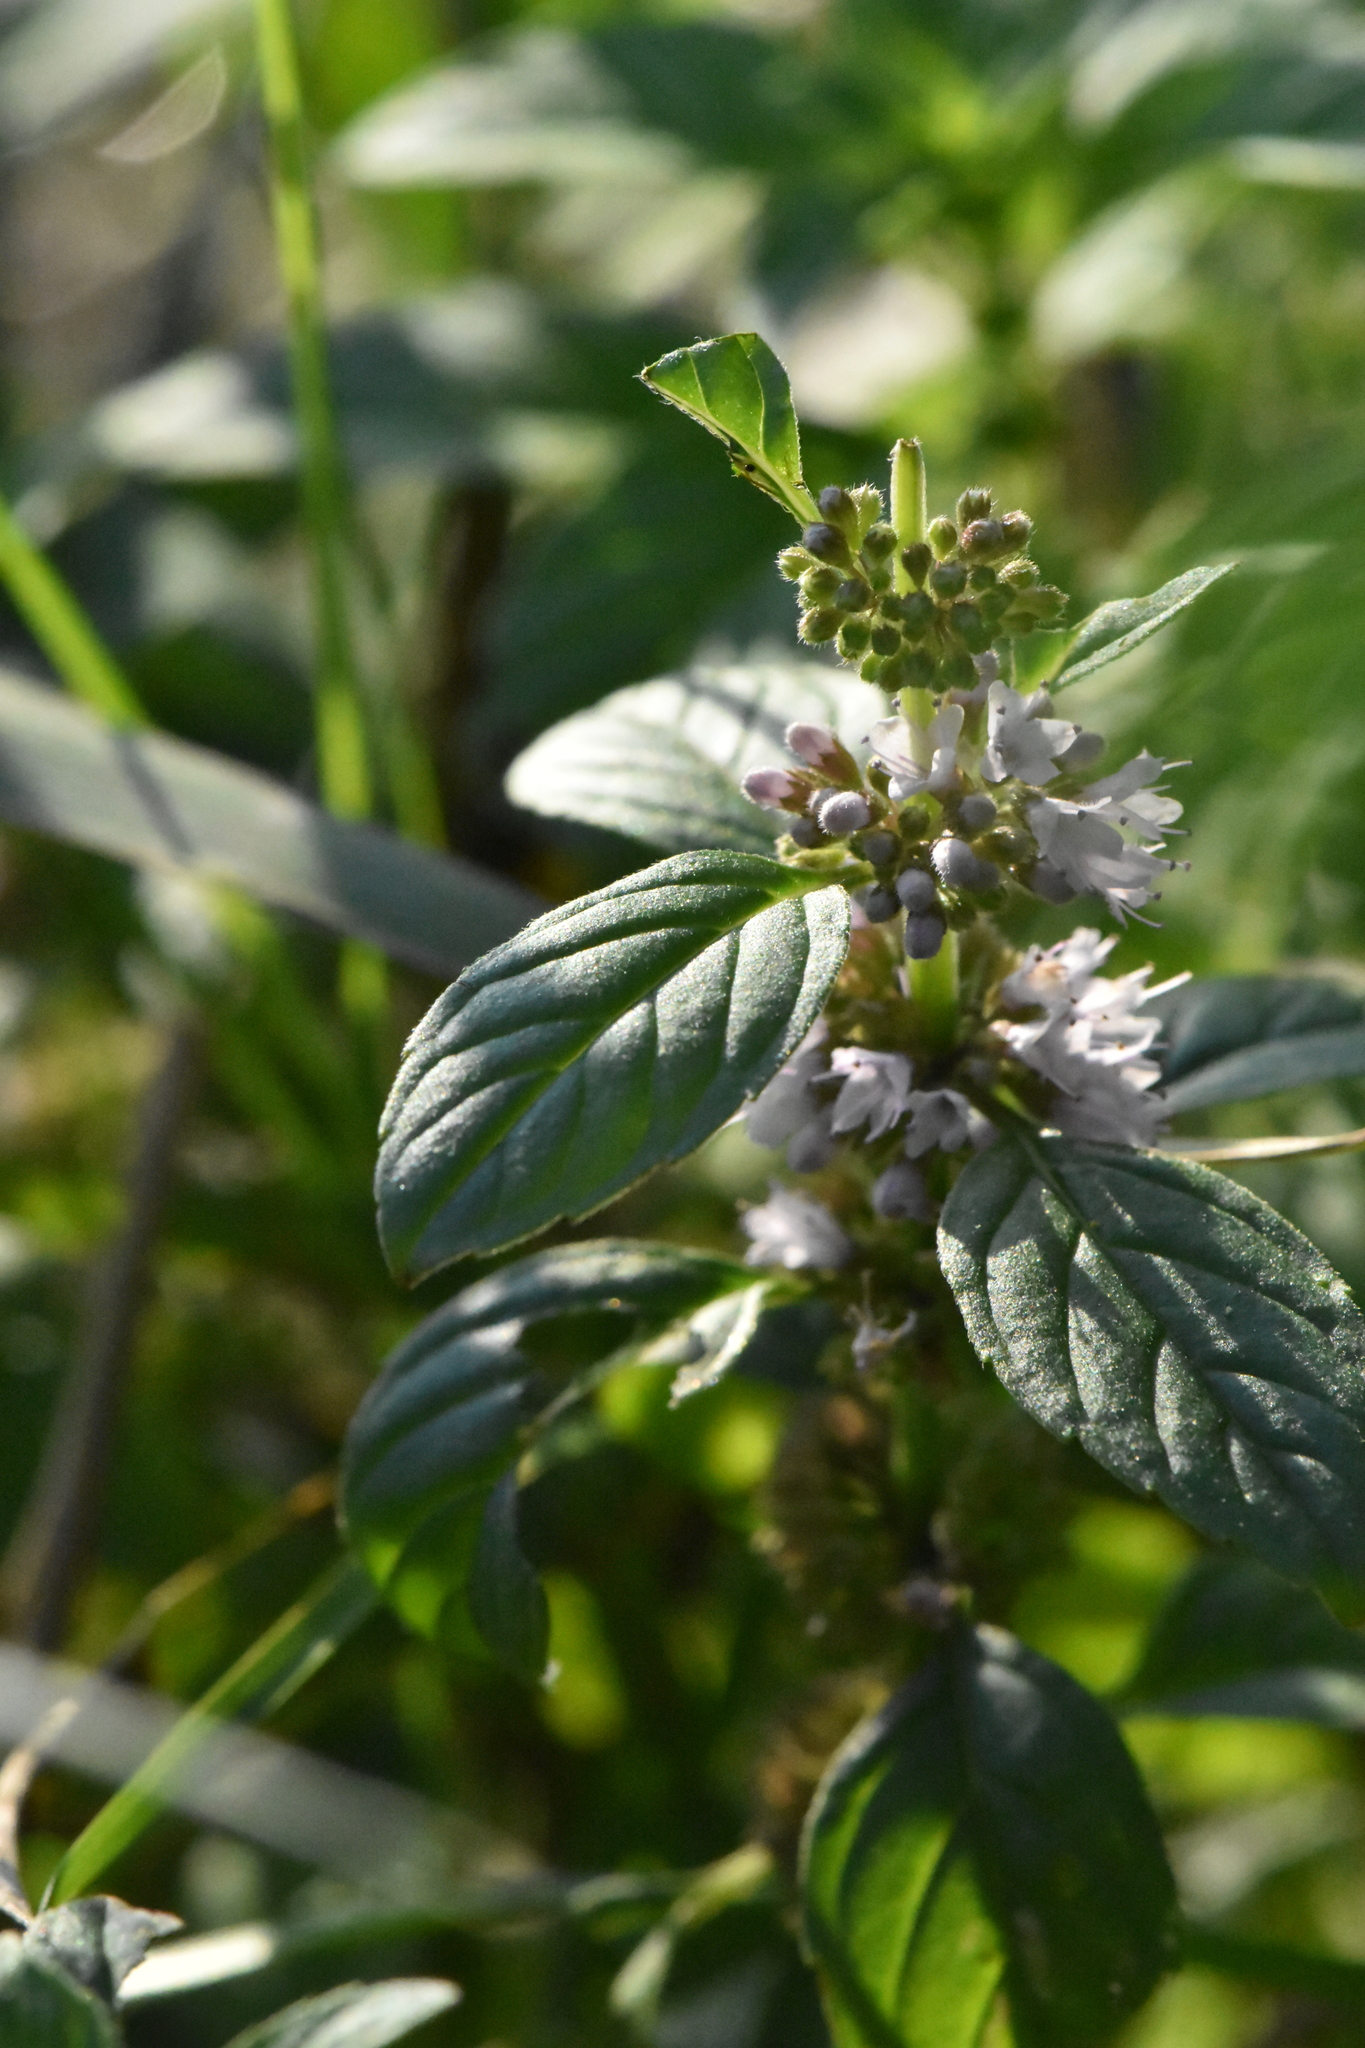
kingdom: Plantae
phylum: Tracheophyta
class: Magnoliopsida
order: Lamiales
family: Lamiaceae
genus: Mentha
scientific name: Mentha arvensis
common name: Corn mint
